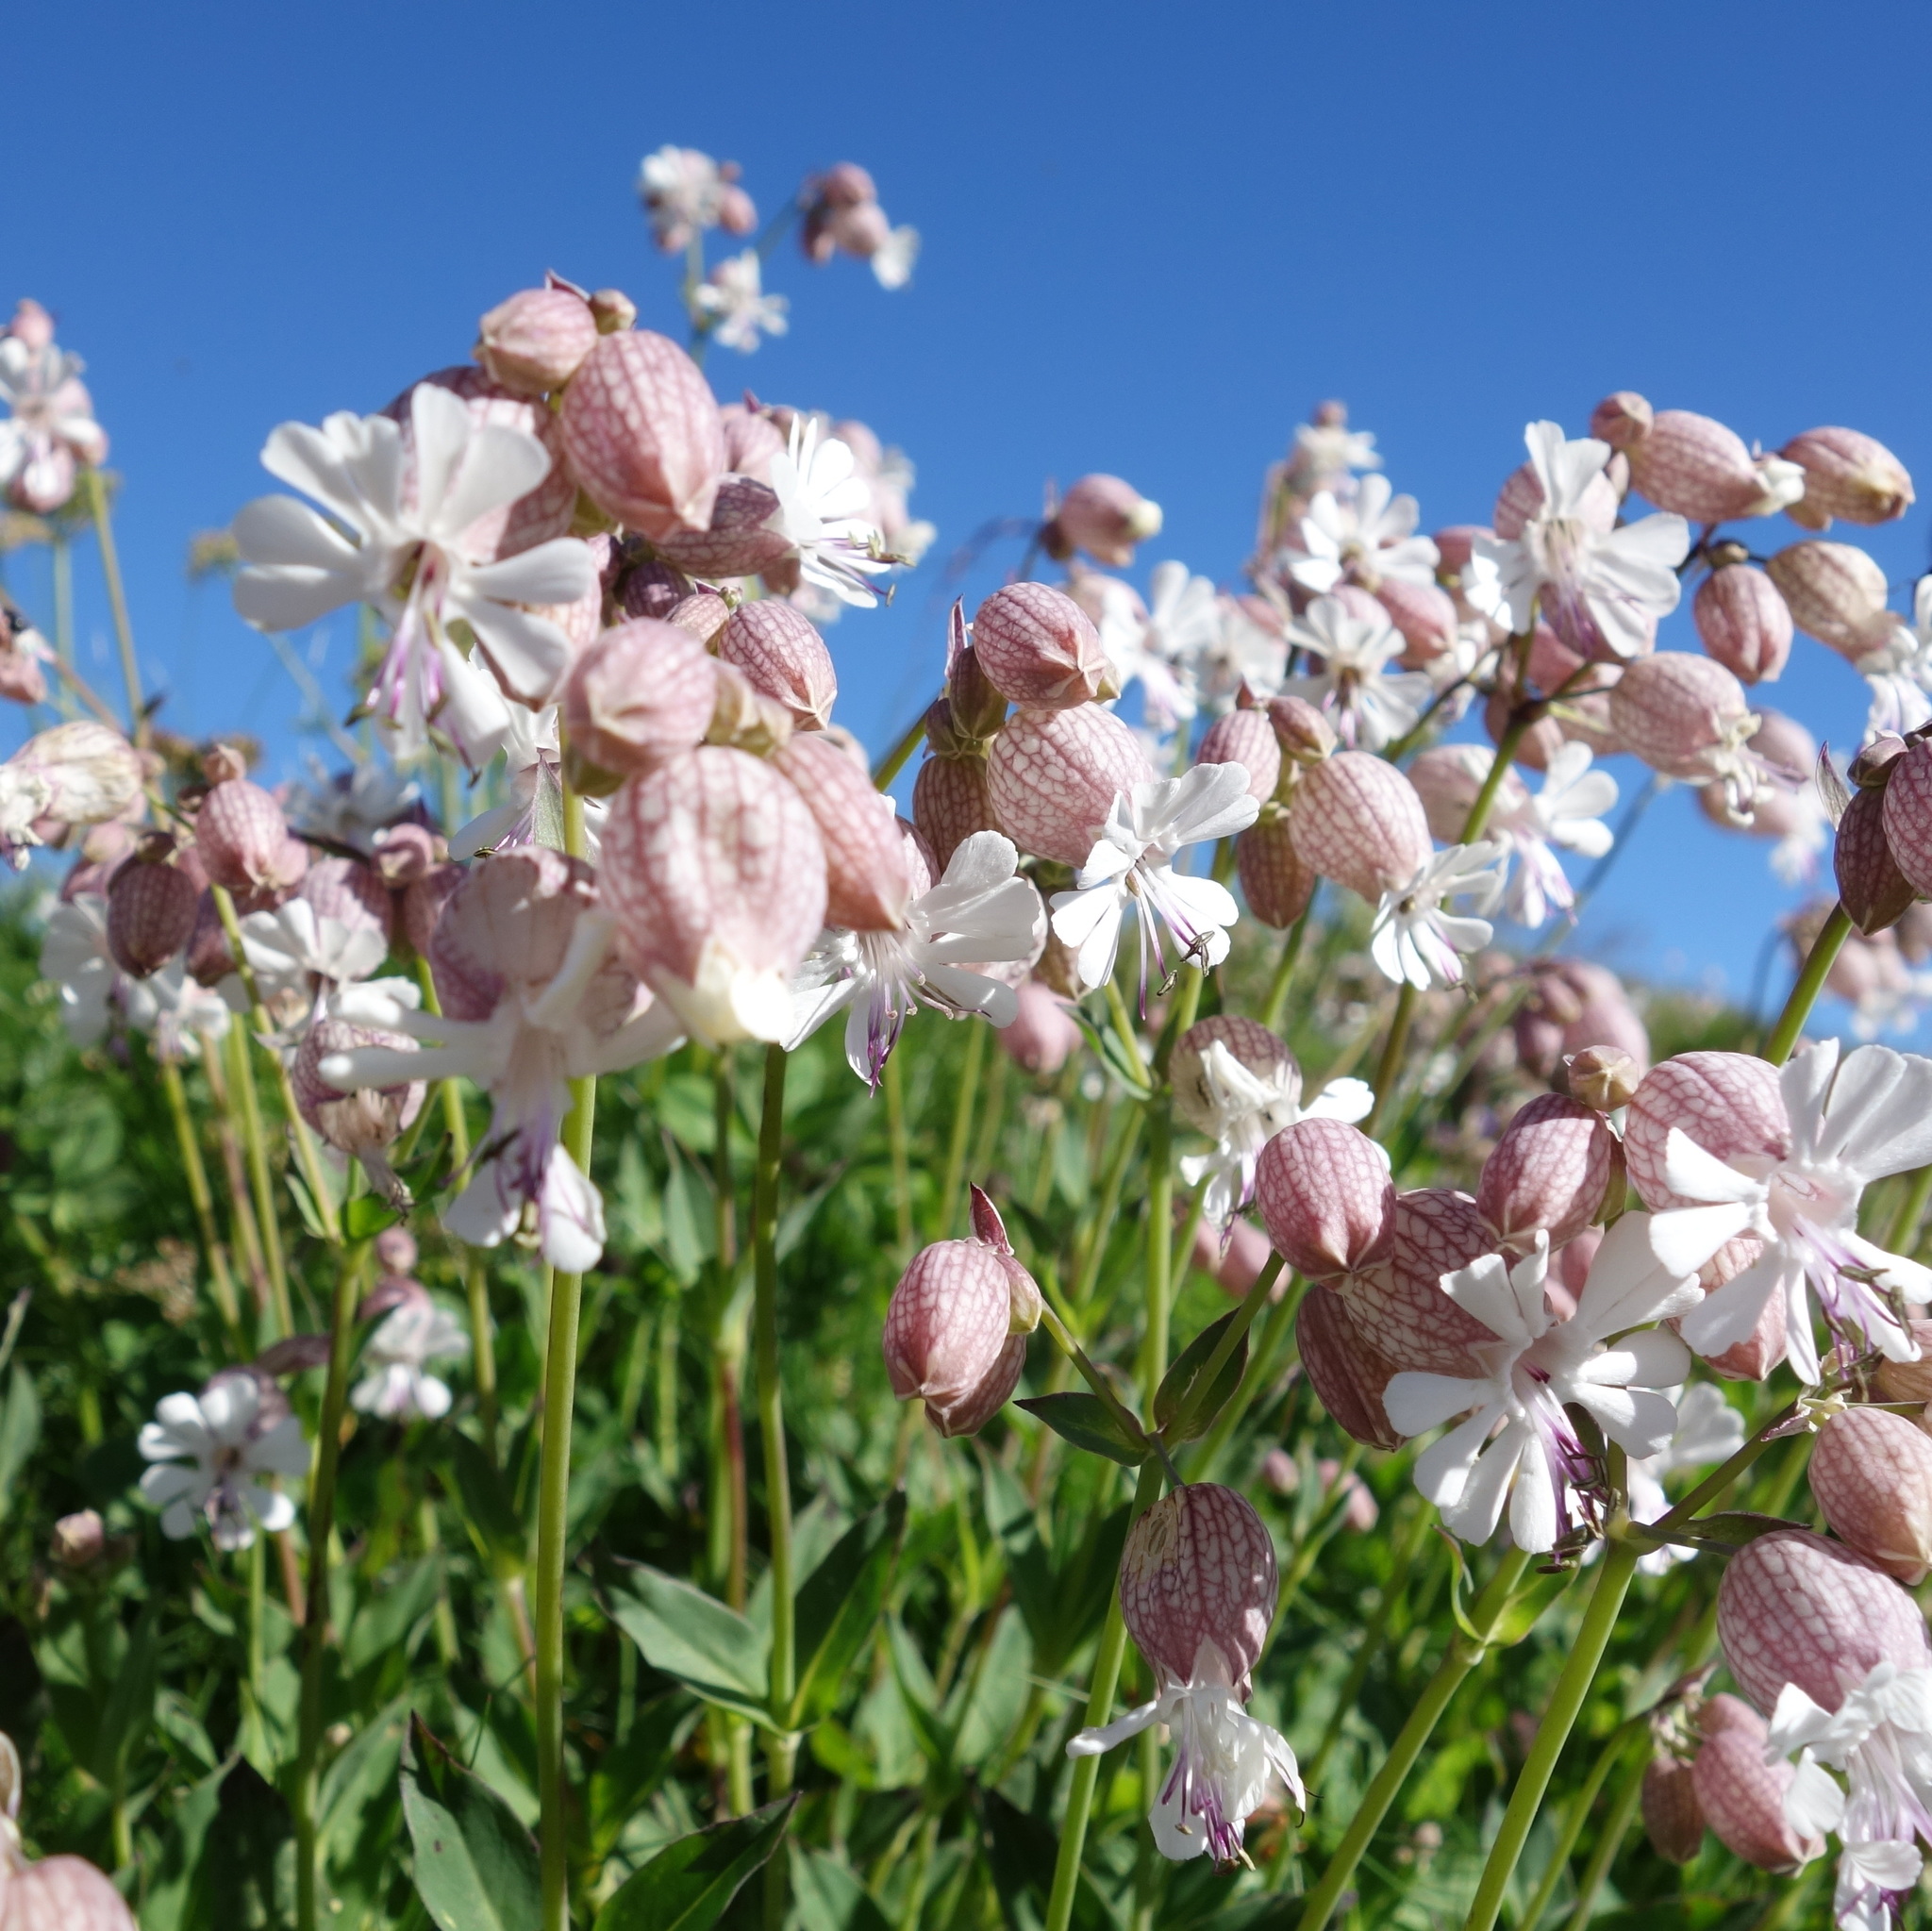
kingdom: Plantae
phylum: Tracheophyta
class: Magnoliopsida
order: Caryophyllales
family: Caryophyllaceae
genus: Silene
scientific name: Silene vulgaris
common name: Bladder campion
